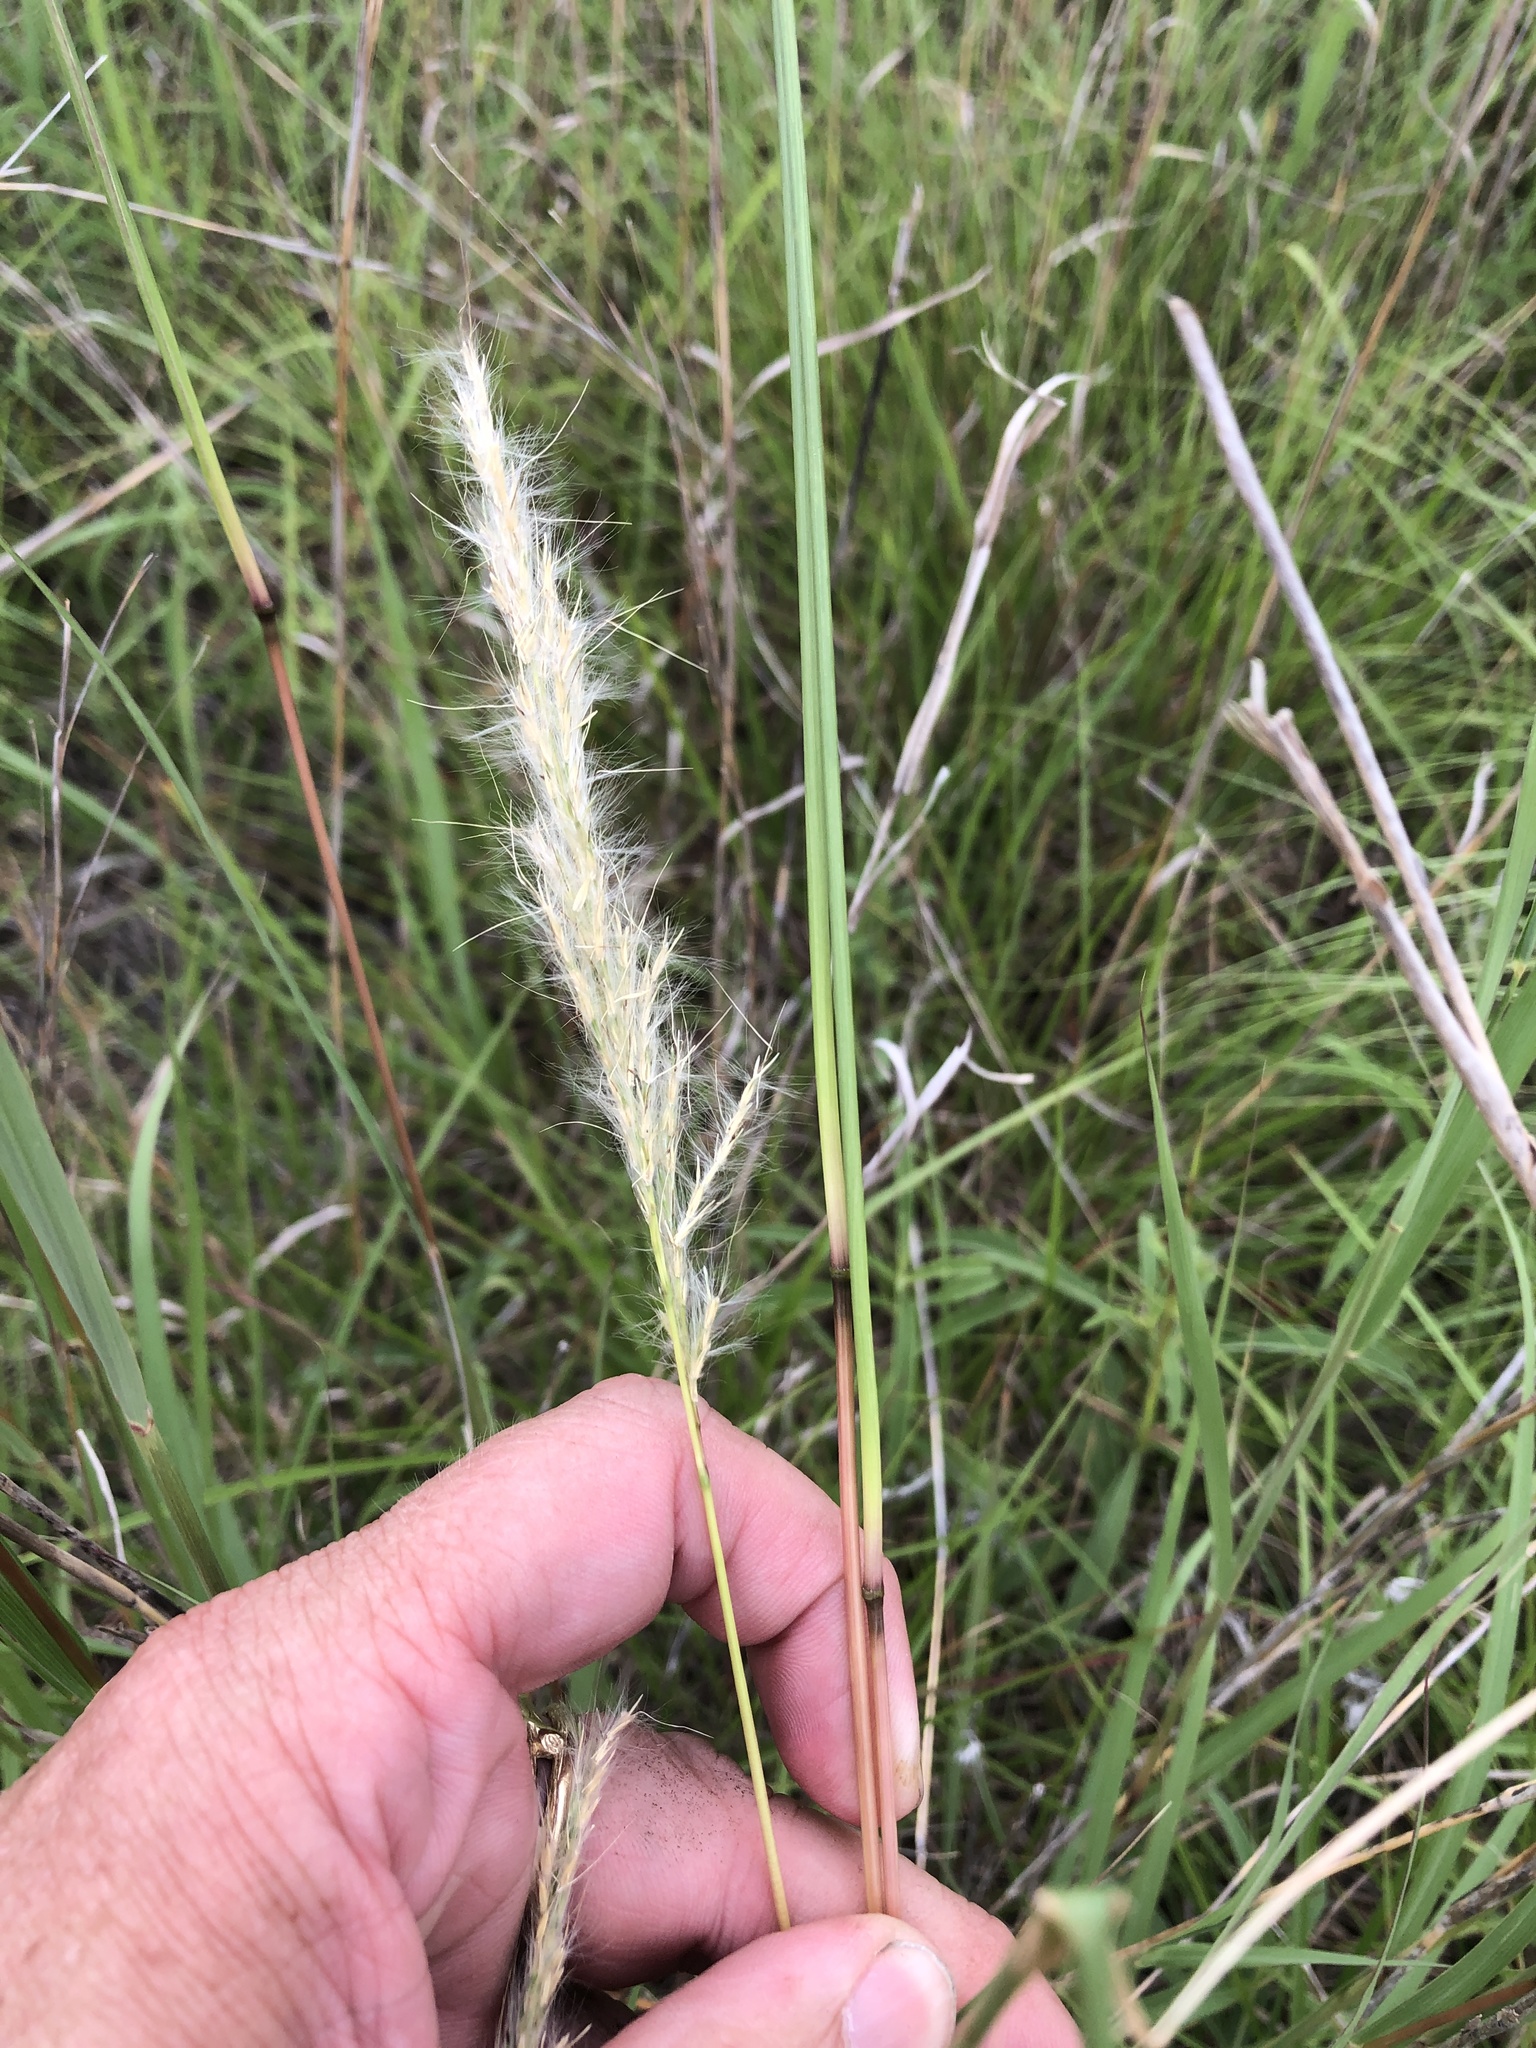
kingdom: Plantae
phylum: Tracheophyta
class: Liliopsida
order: Poales
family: Poaceae
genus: Bothriochloa
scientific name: Bothriochloa torreyana
